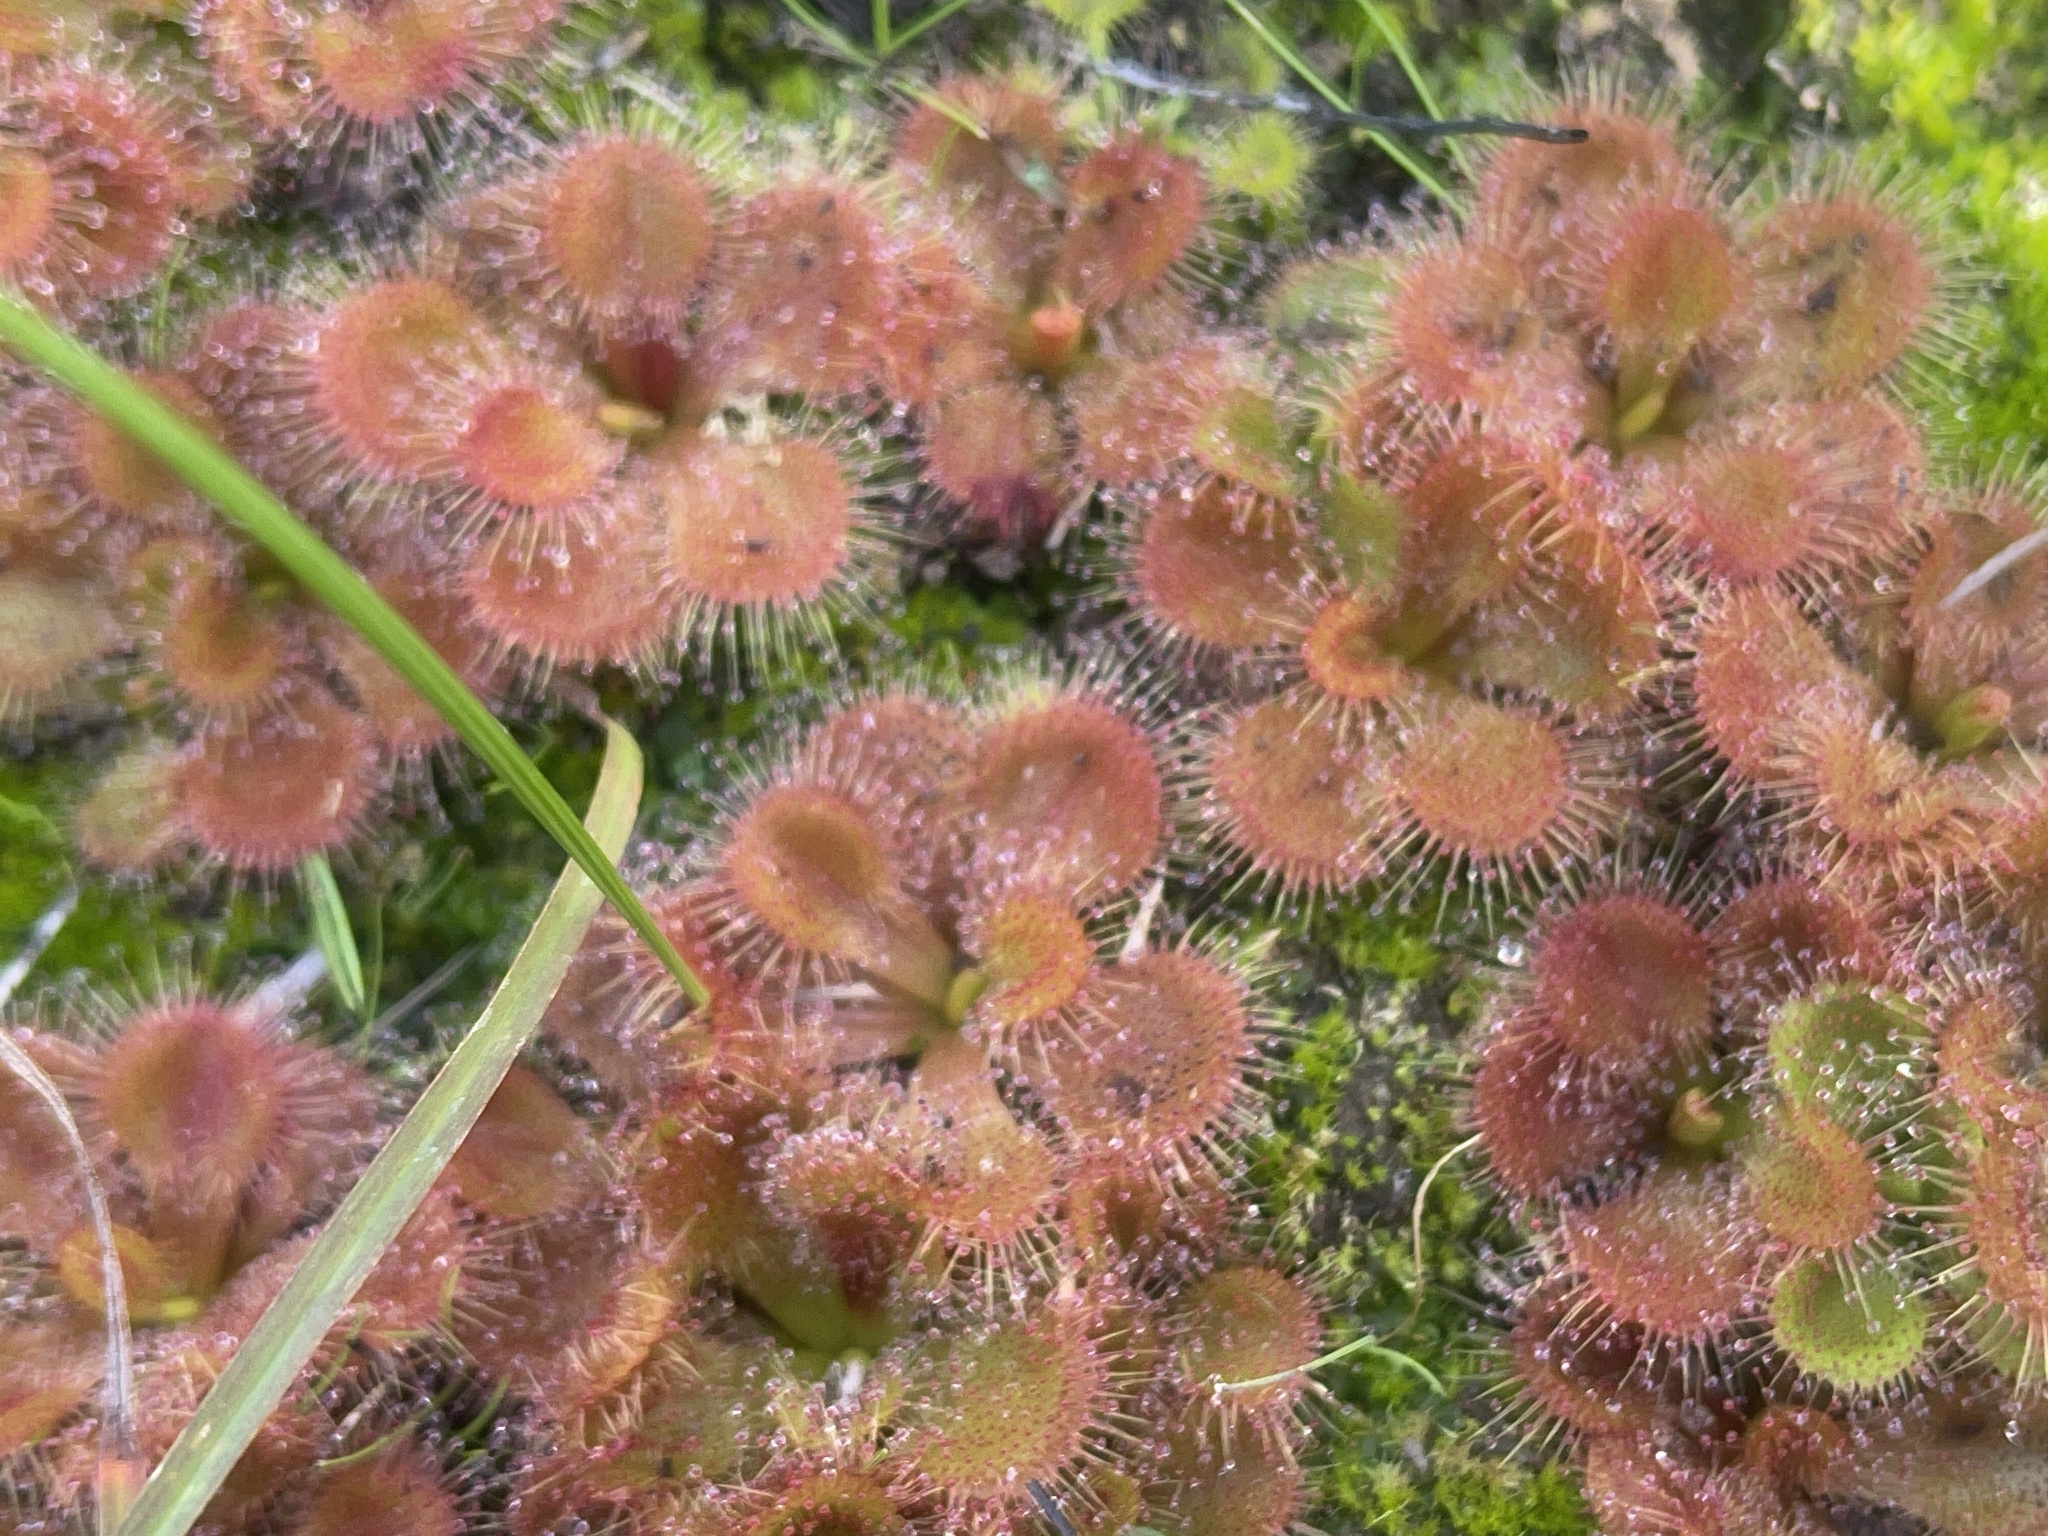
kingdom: Plantae
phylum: Tracheophyta
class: Magnoliopsida
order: Caryophyllales
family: Droseraceae
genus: Drosera
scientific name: Drosera aberrans
